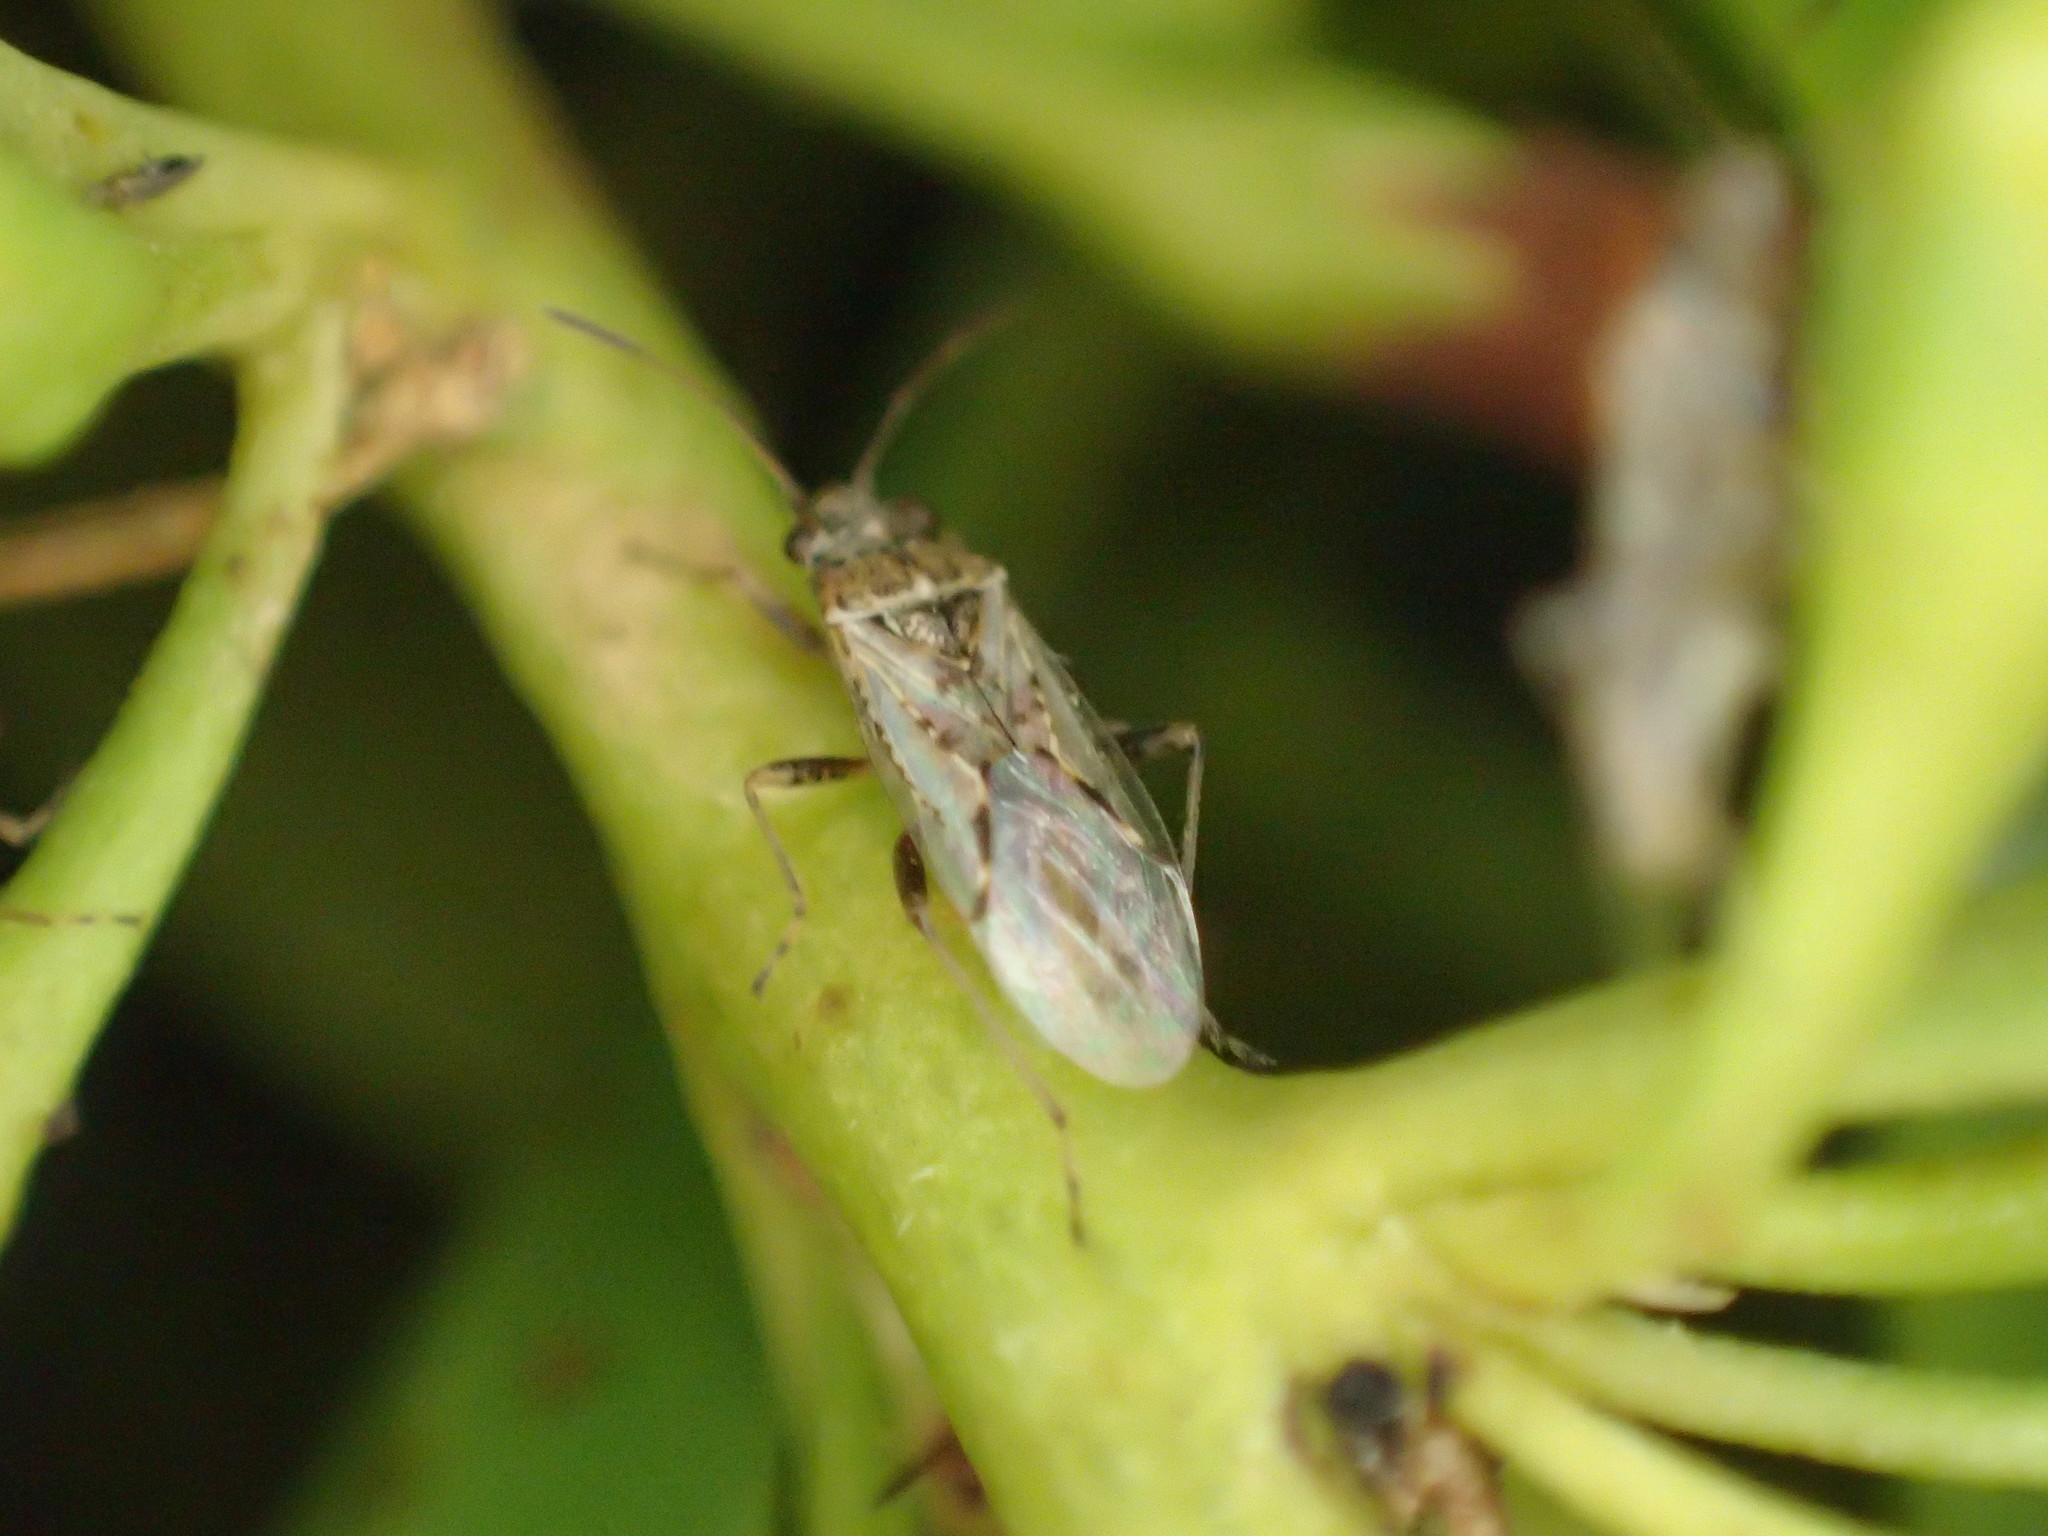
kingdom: Animalia
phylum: Arthropoda
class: Insecta
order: Hemiptera
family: Lygaeidae
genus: Nysius
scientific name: Nysius vinitor
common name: Lygaeid bug
